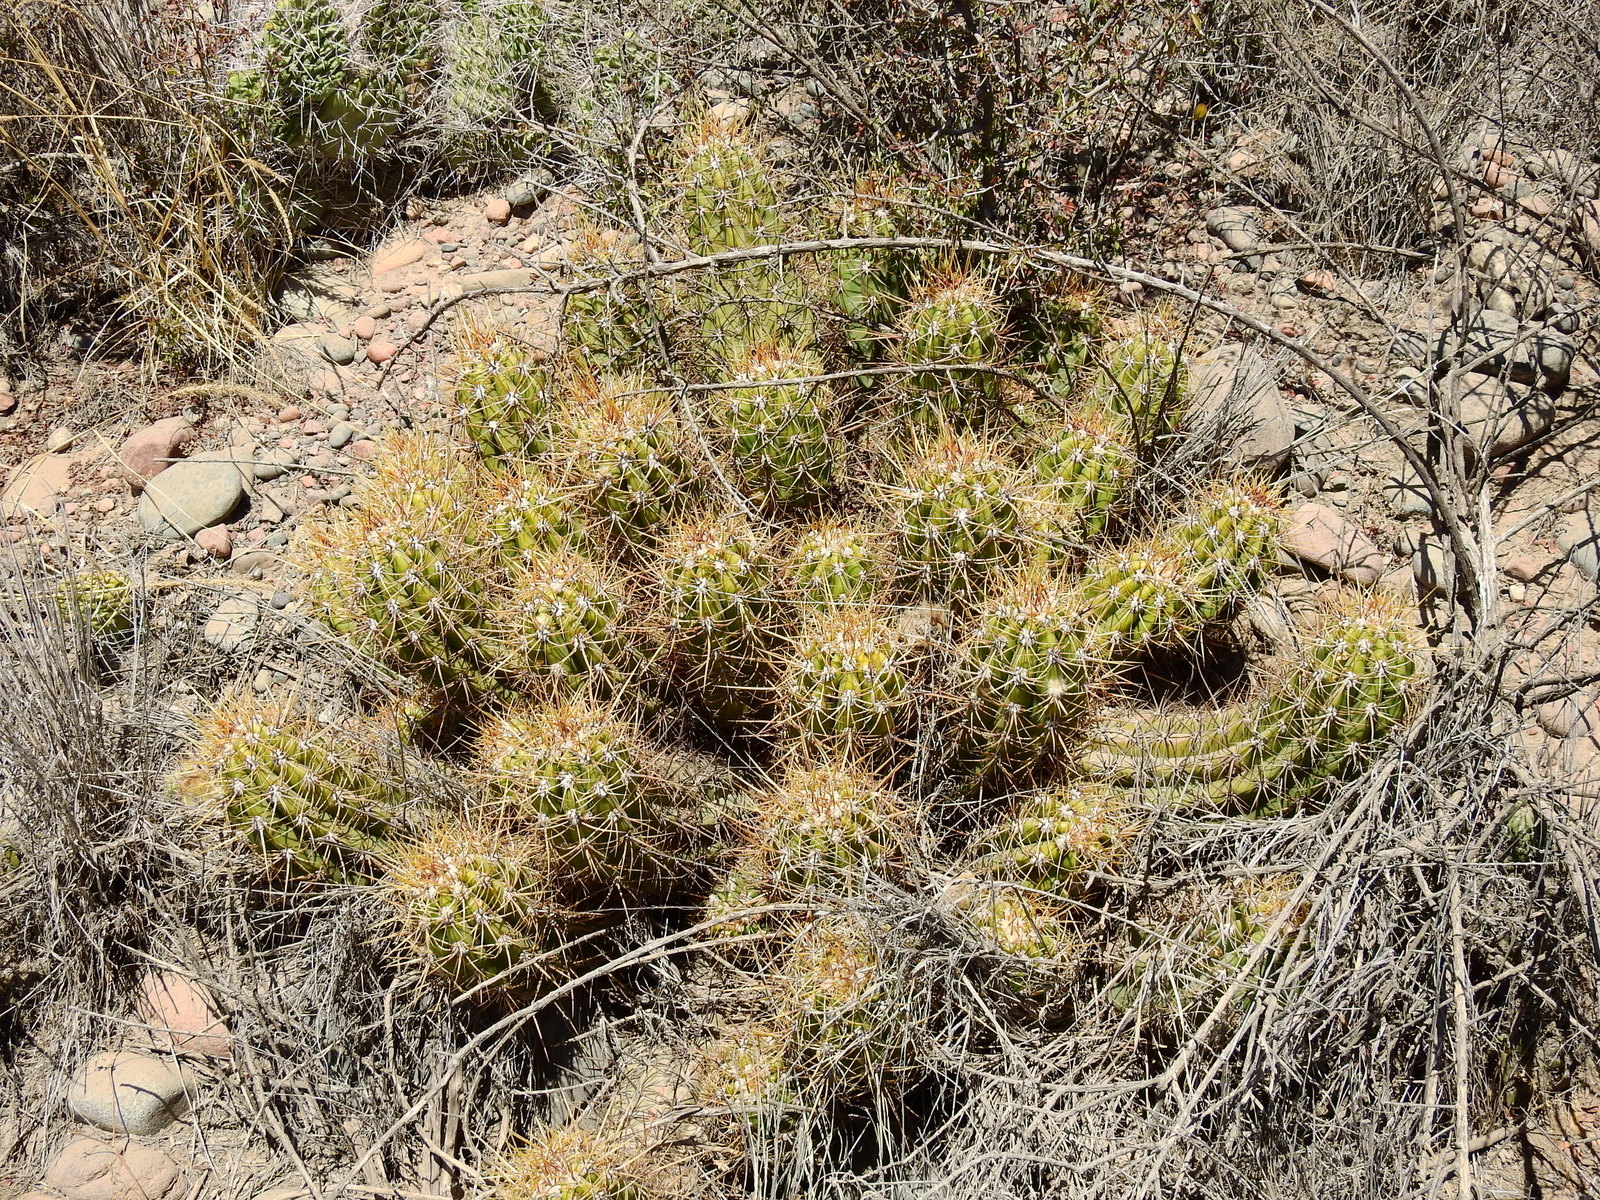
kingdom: Plantae
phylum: Tracheophyta
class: Magnoliopsida
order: Caryophyllales
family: Cactaceae
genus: Soehrensia
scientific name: Soehrensia candicans
